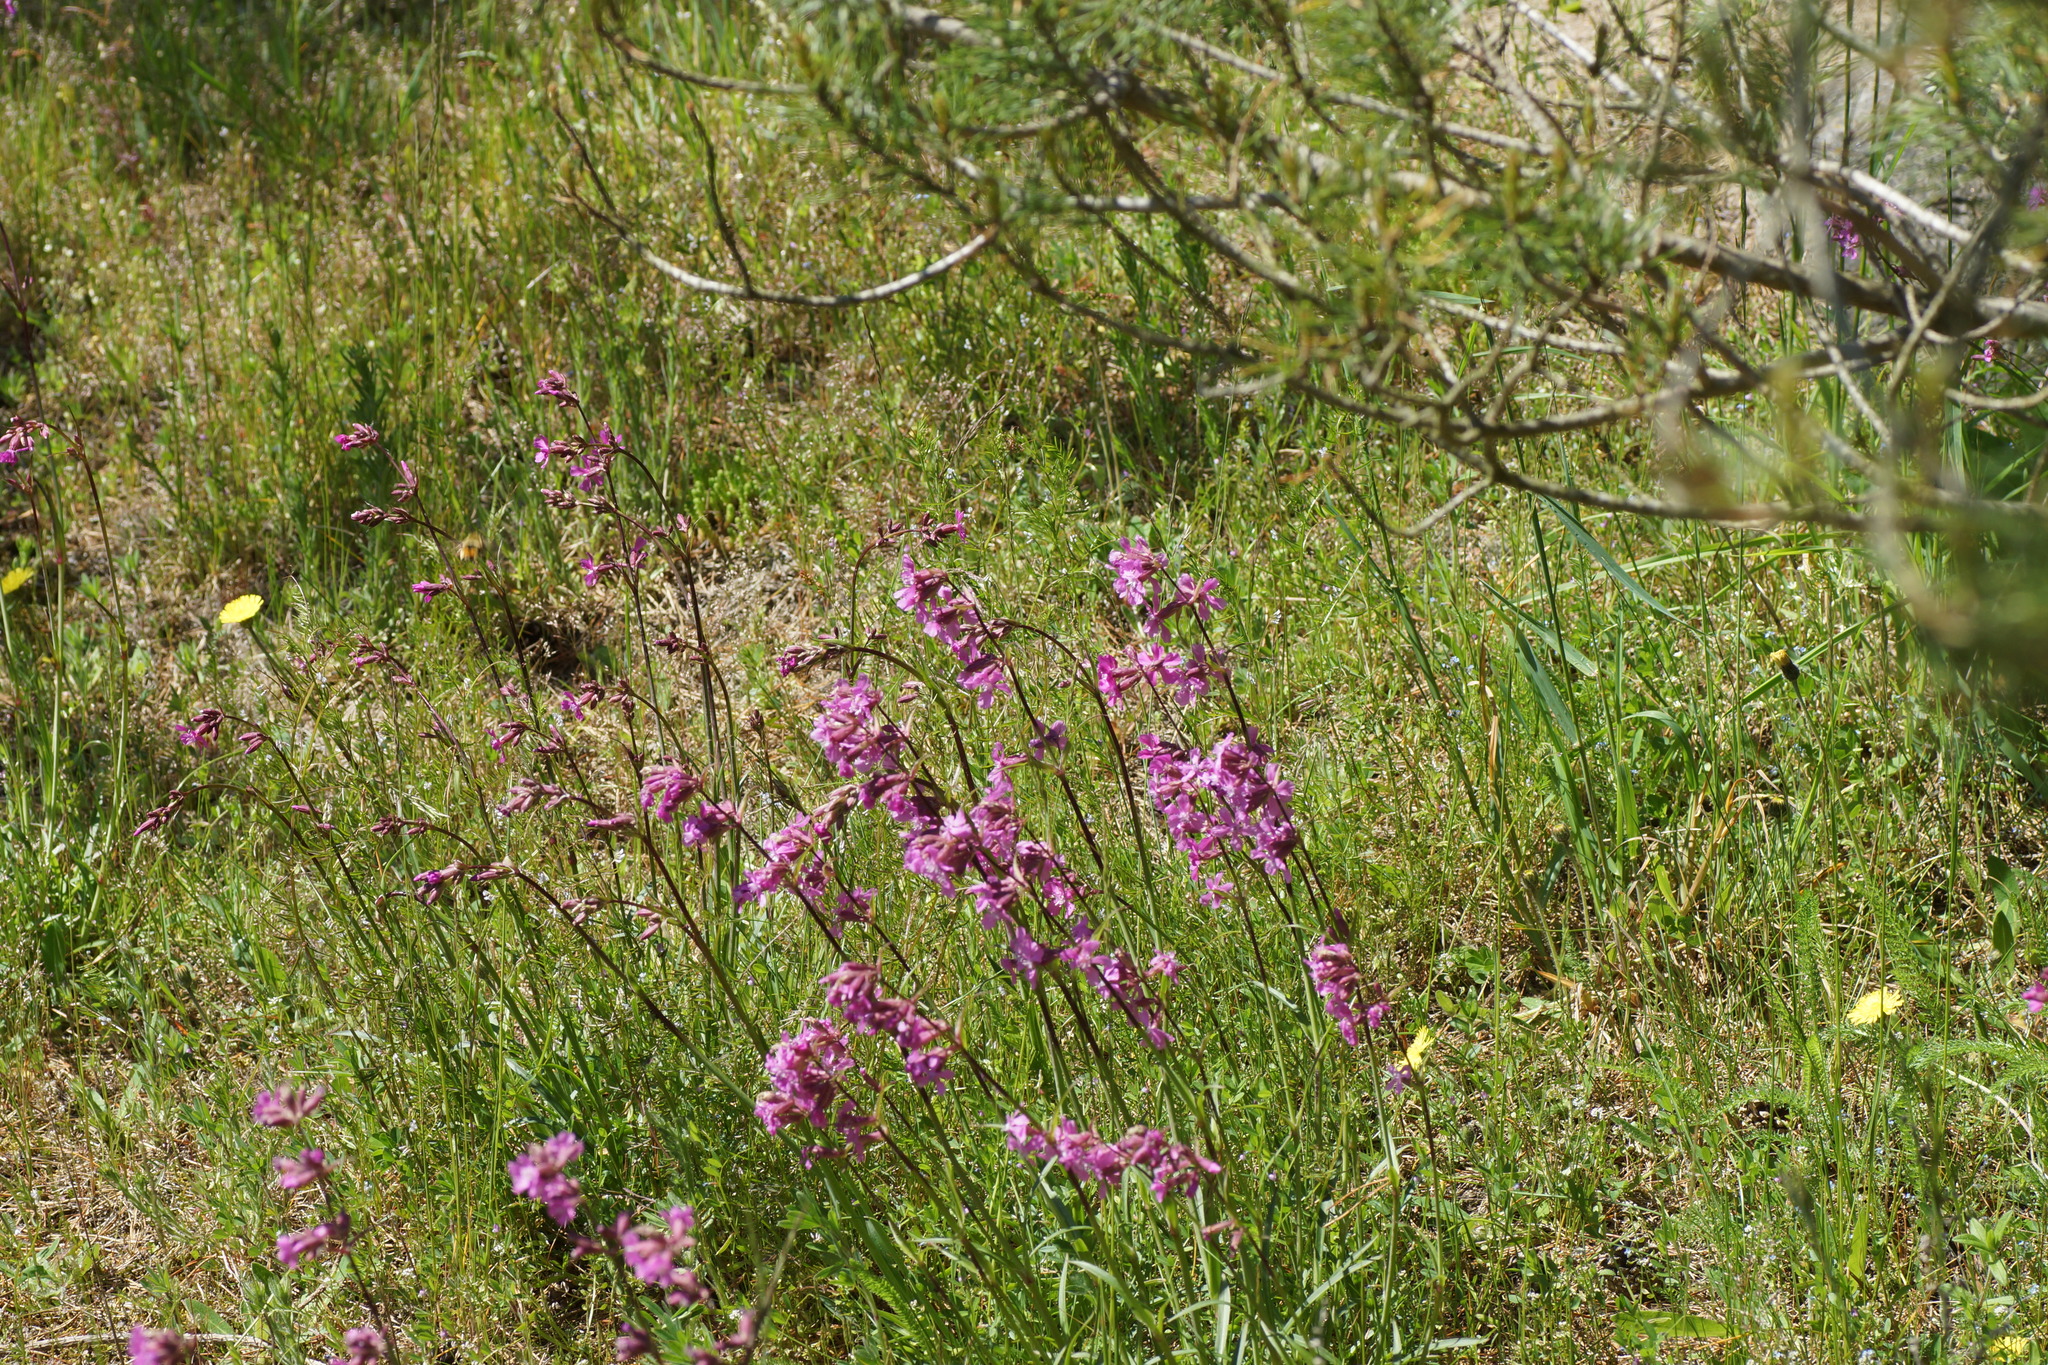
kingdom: Plantae
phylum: Tracheophyta
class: Magnoliopsida
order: Caryophyllales
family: Caryophyllaceae
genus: Viscaria
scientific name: Viscaria vulgaris
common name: Clammy campion
